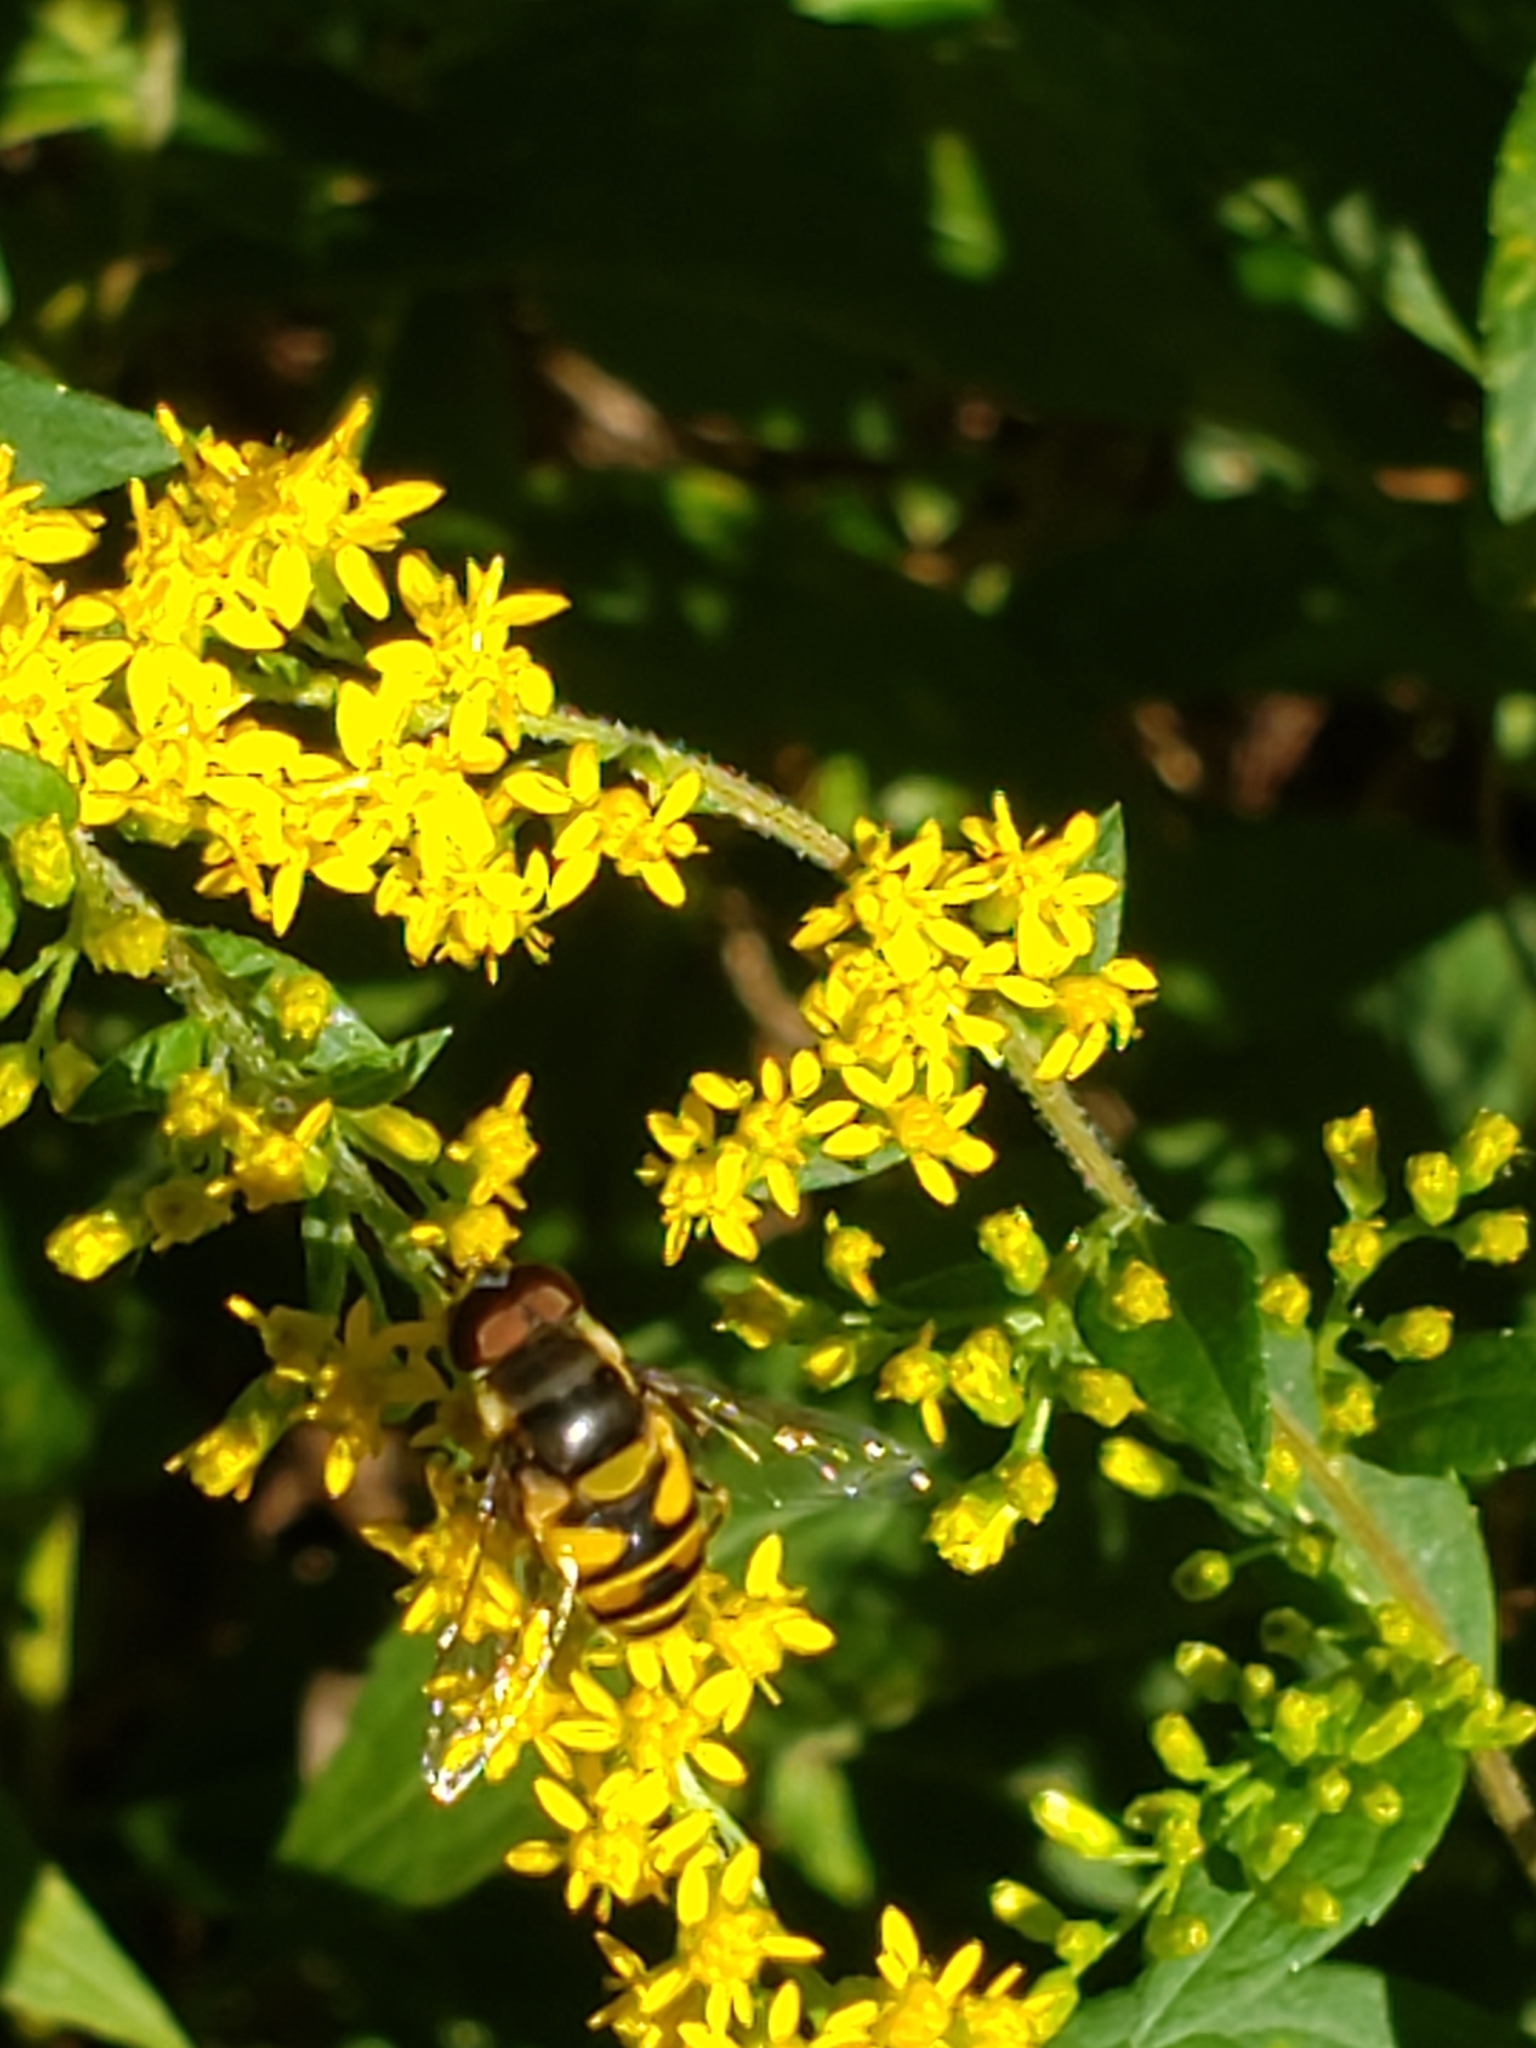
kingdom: Animalia
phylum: Arthropoda
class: Insecta
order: Diptera
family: Syrphidae
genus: Eristalis
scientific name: Eristalis transversa
